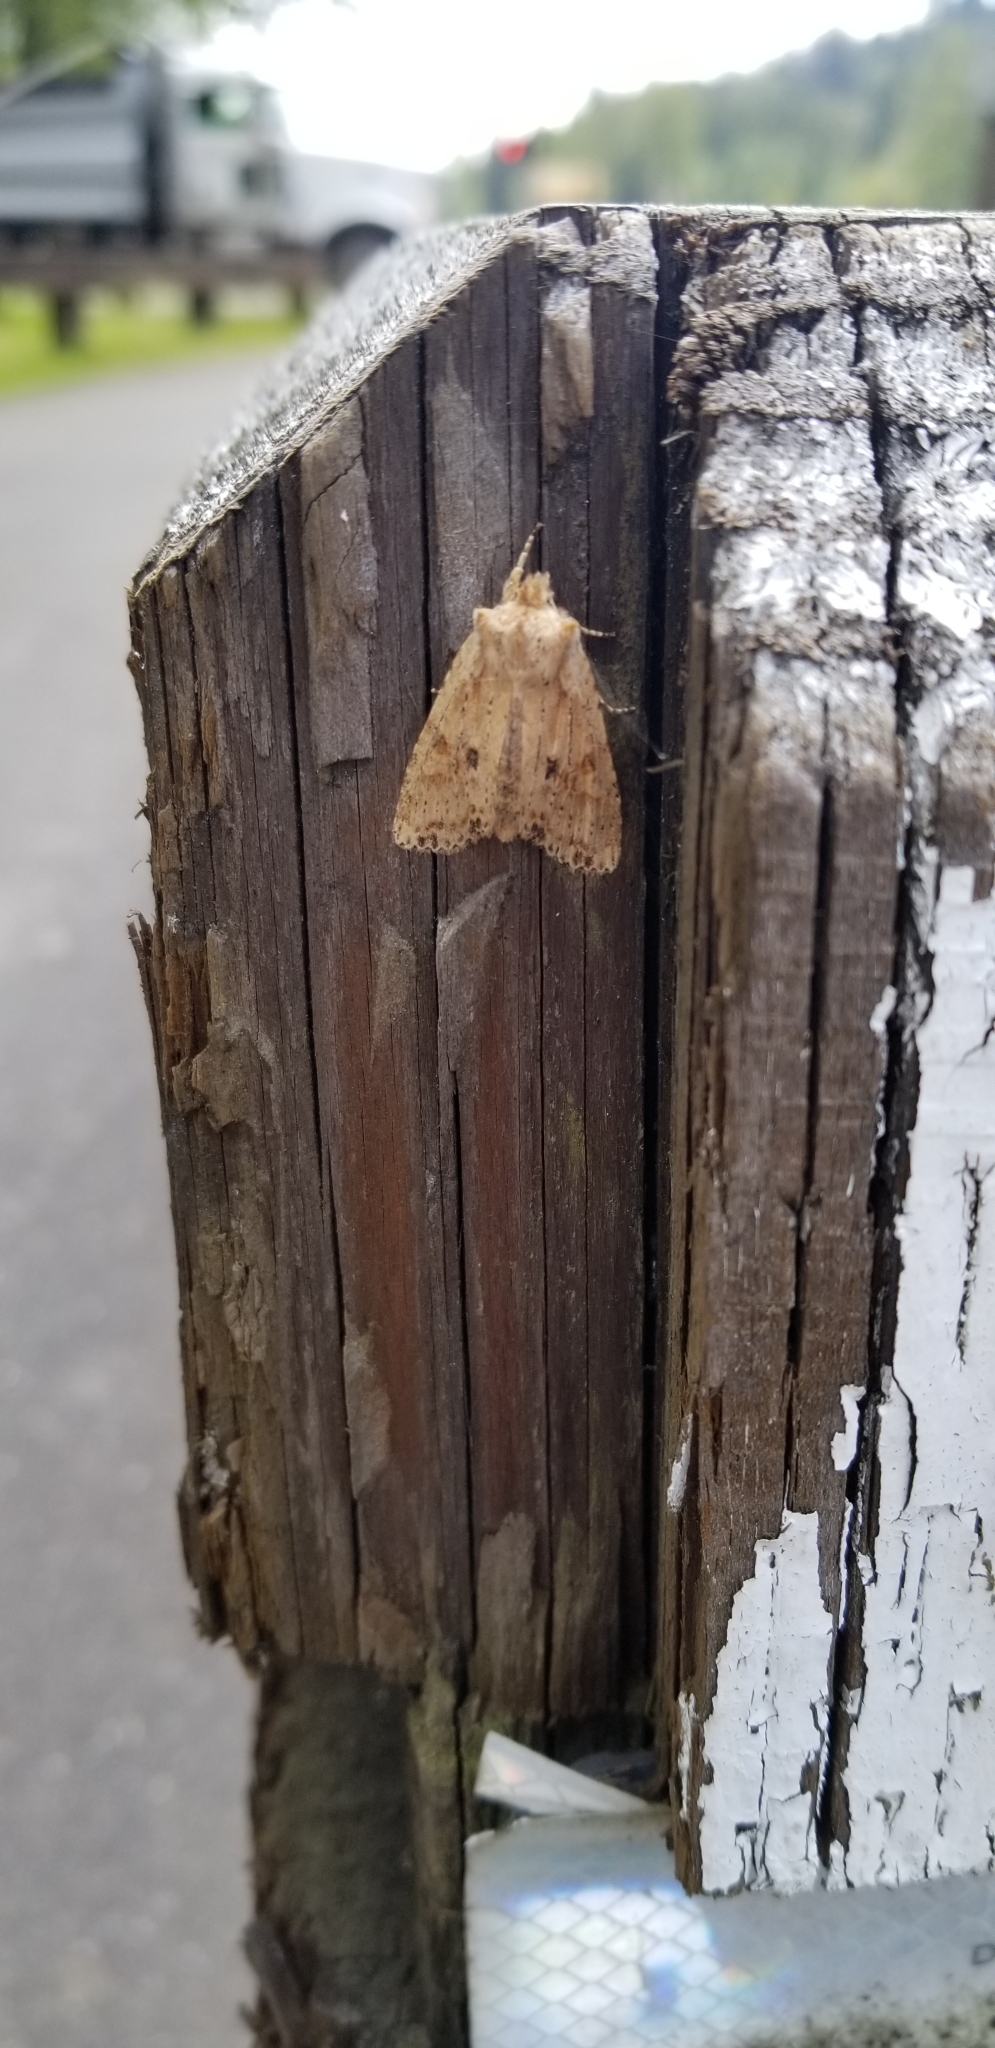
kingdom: Animalia
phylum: Arthropoda
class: Insecta
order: Lepidoptera
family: Noctuidae
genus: Lithophane
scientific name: Lithophane innominata
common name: Nameless pinion moth
